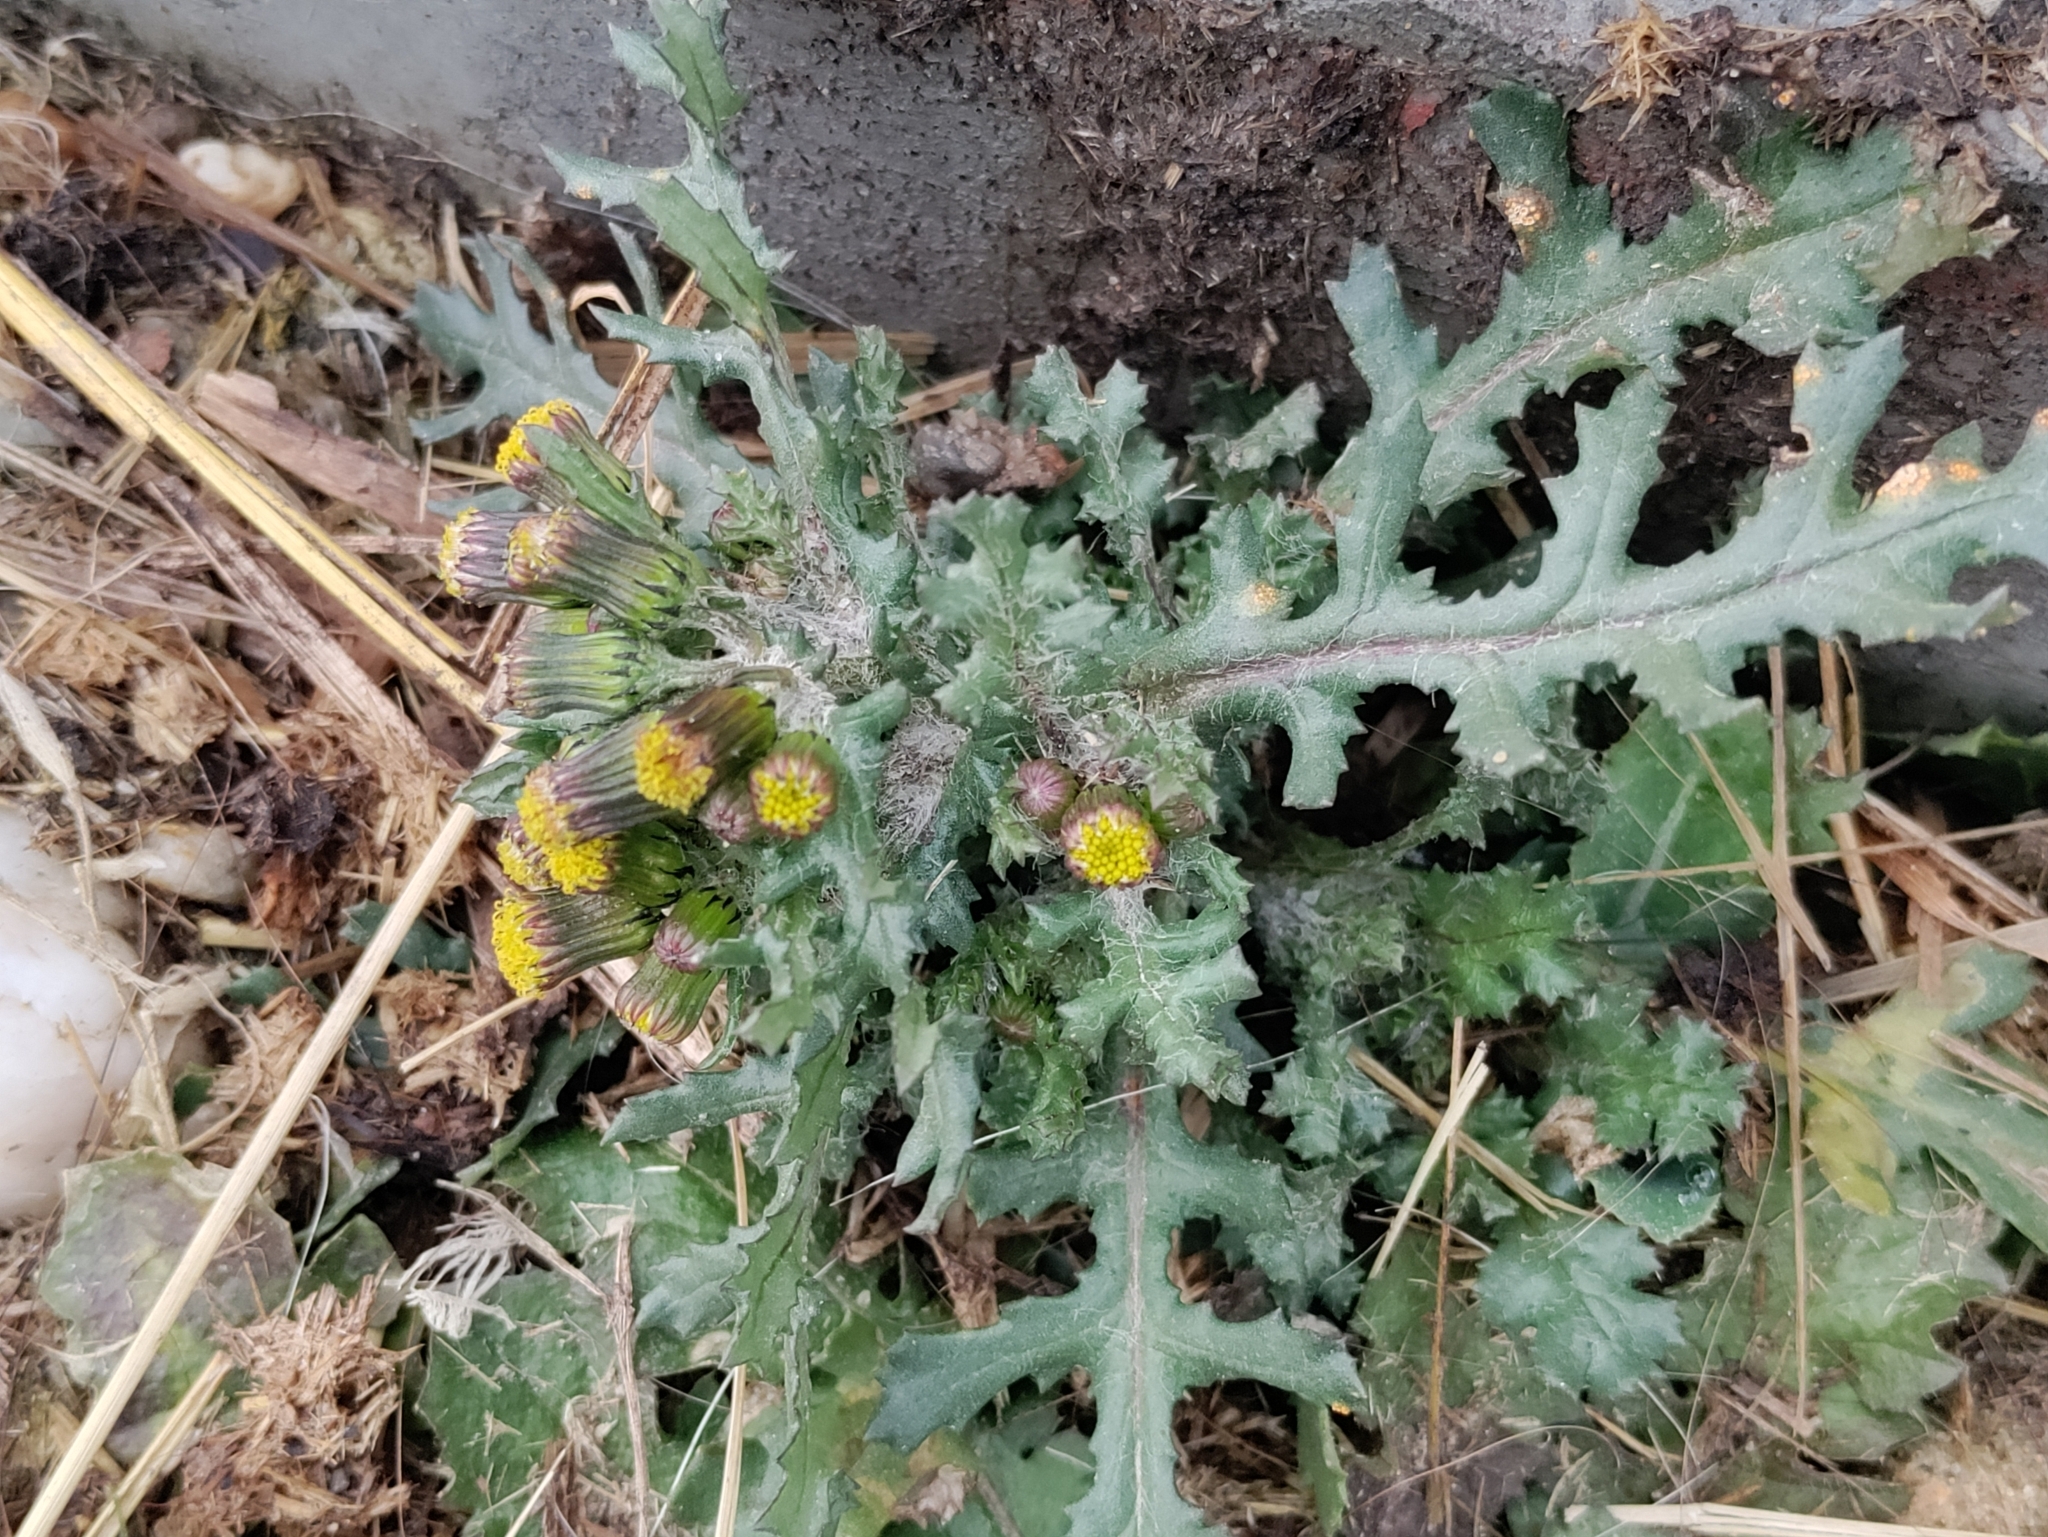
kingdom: Plantae
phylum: Tracheophyta
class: Magnoliopsida
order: Asterales
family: Asteraceae
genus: Senecio
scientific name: Senecio vulgaris
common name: Old-man-in-the-spring
